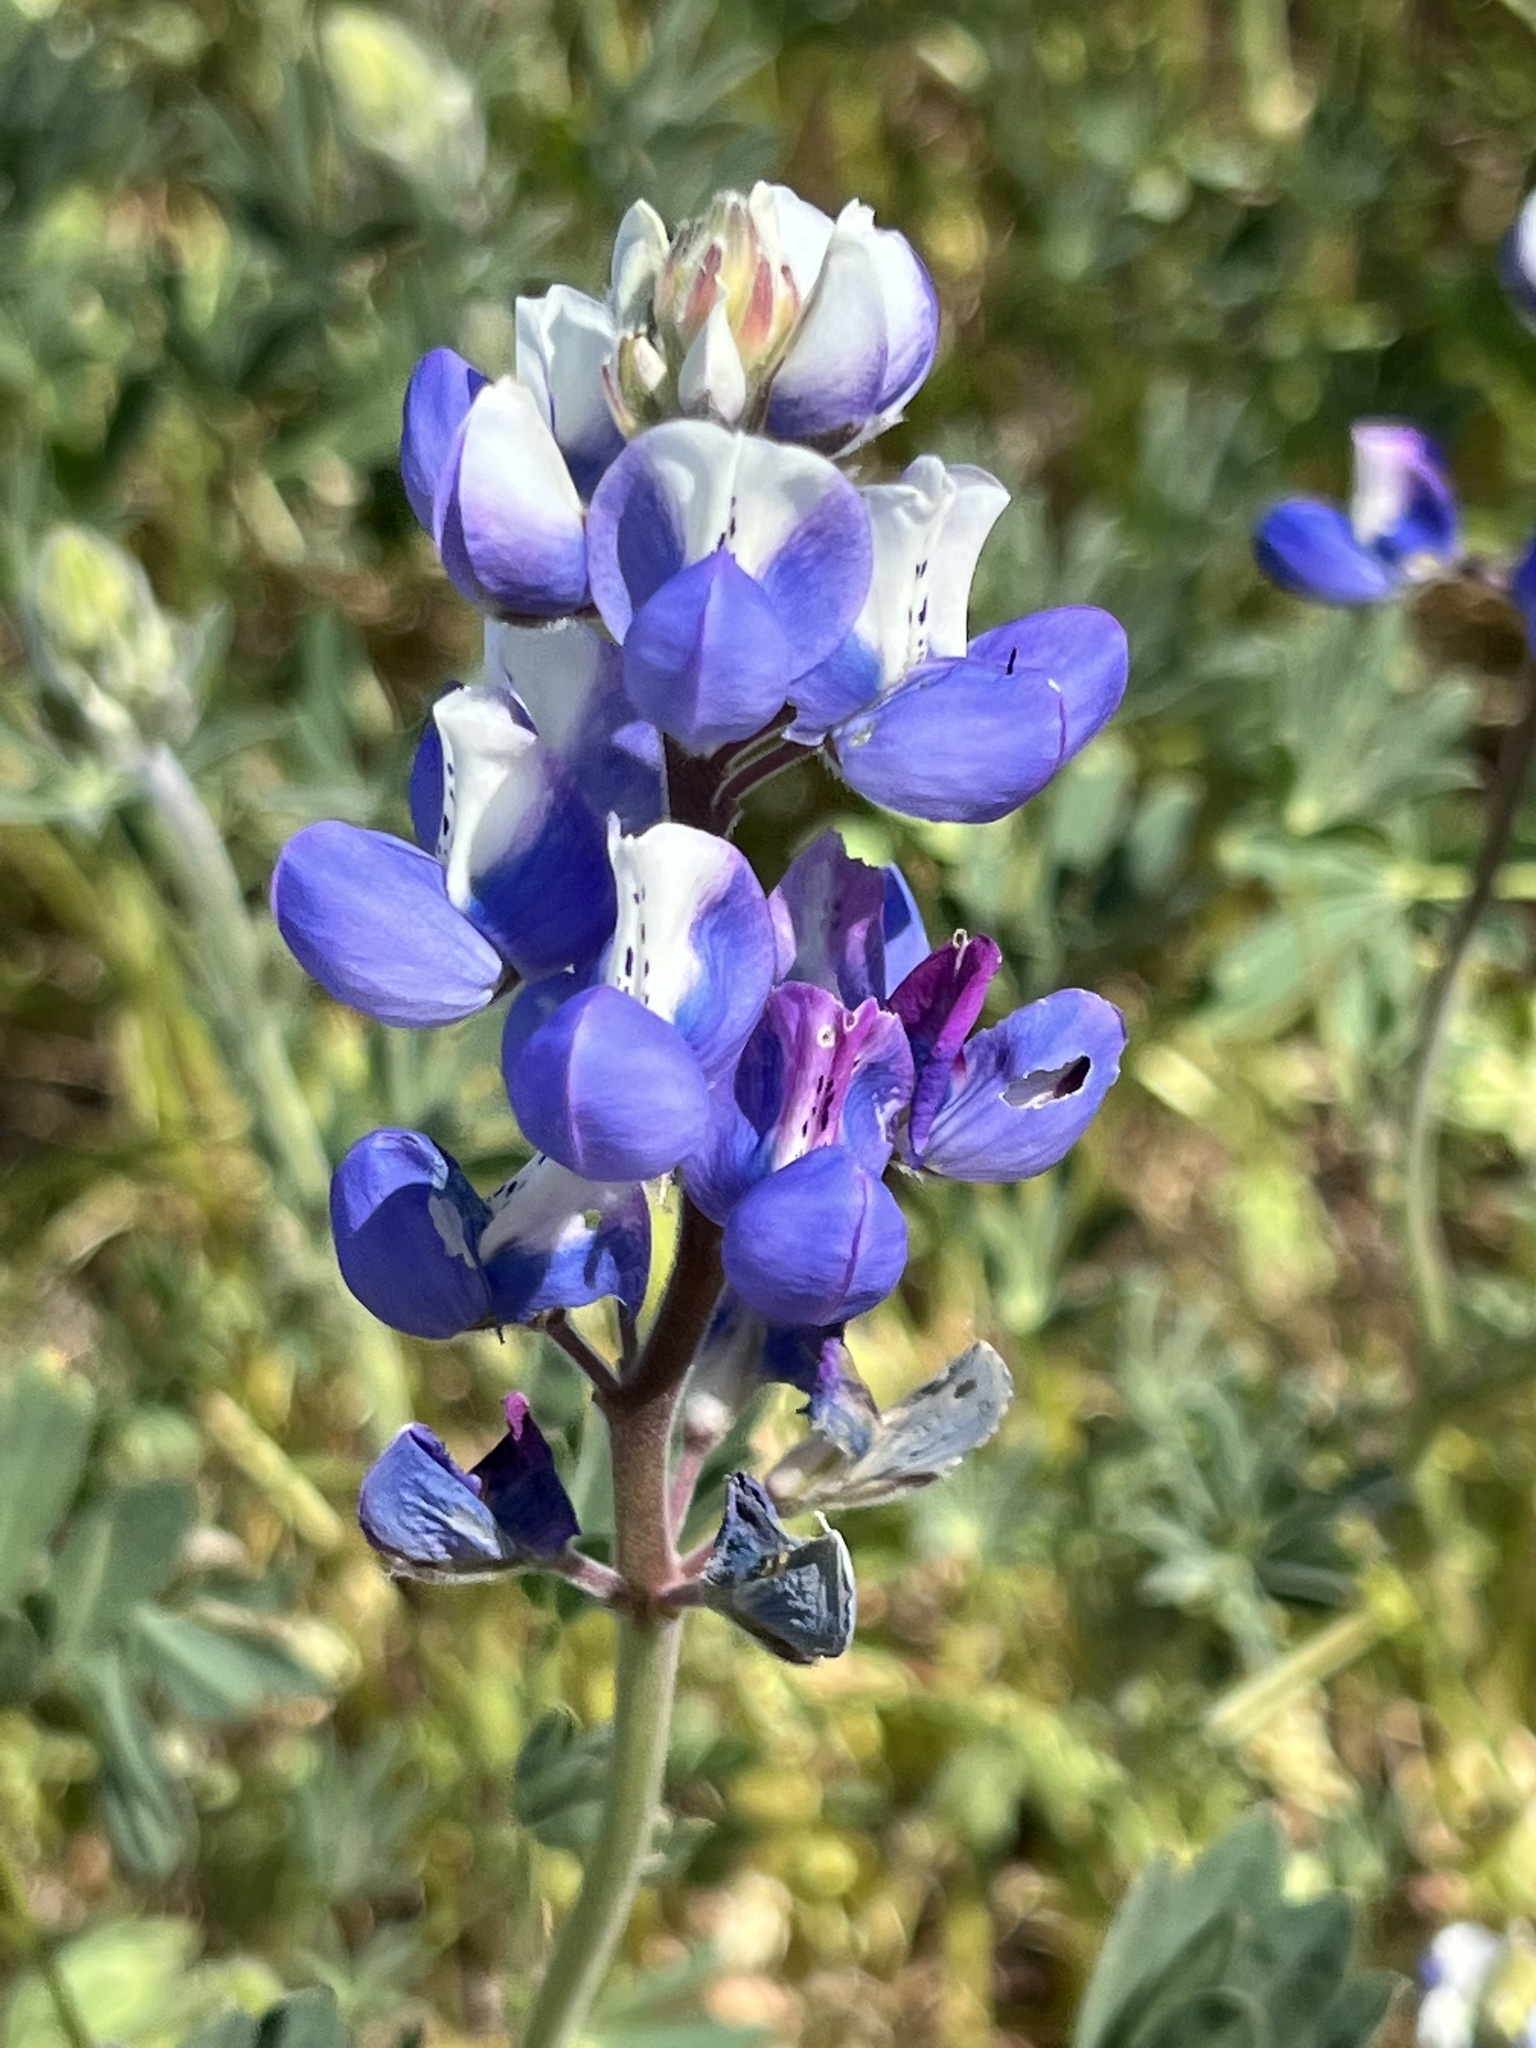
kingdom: Plantae
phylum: Tracheophyta
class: Magnoliopsida
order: Fabales
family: Fabaceae
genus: Lupinus
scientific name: Lupinus nanus
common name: Orean blue lupin
